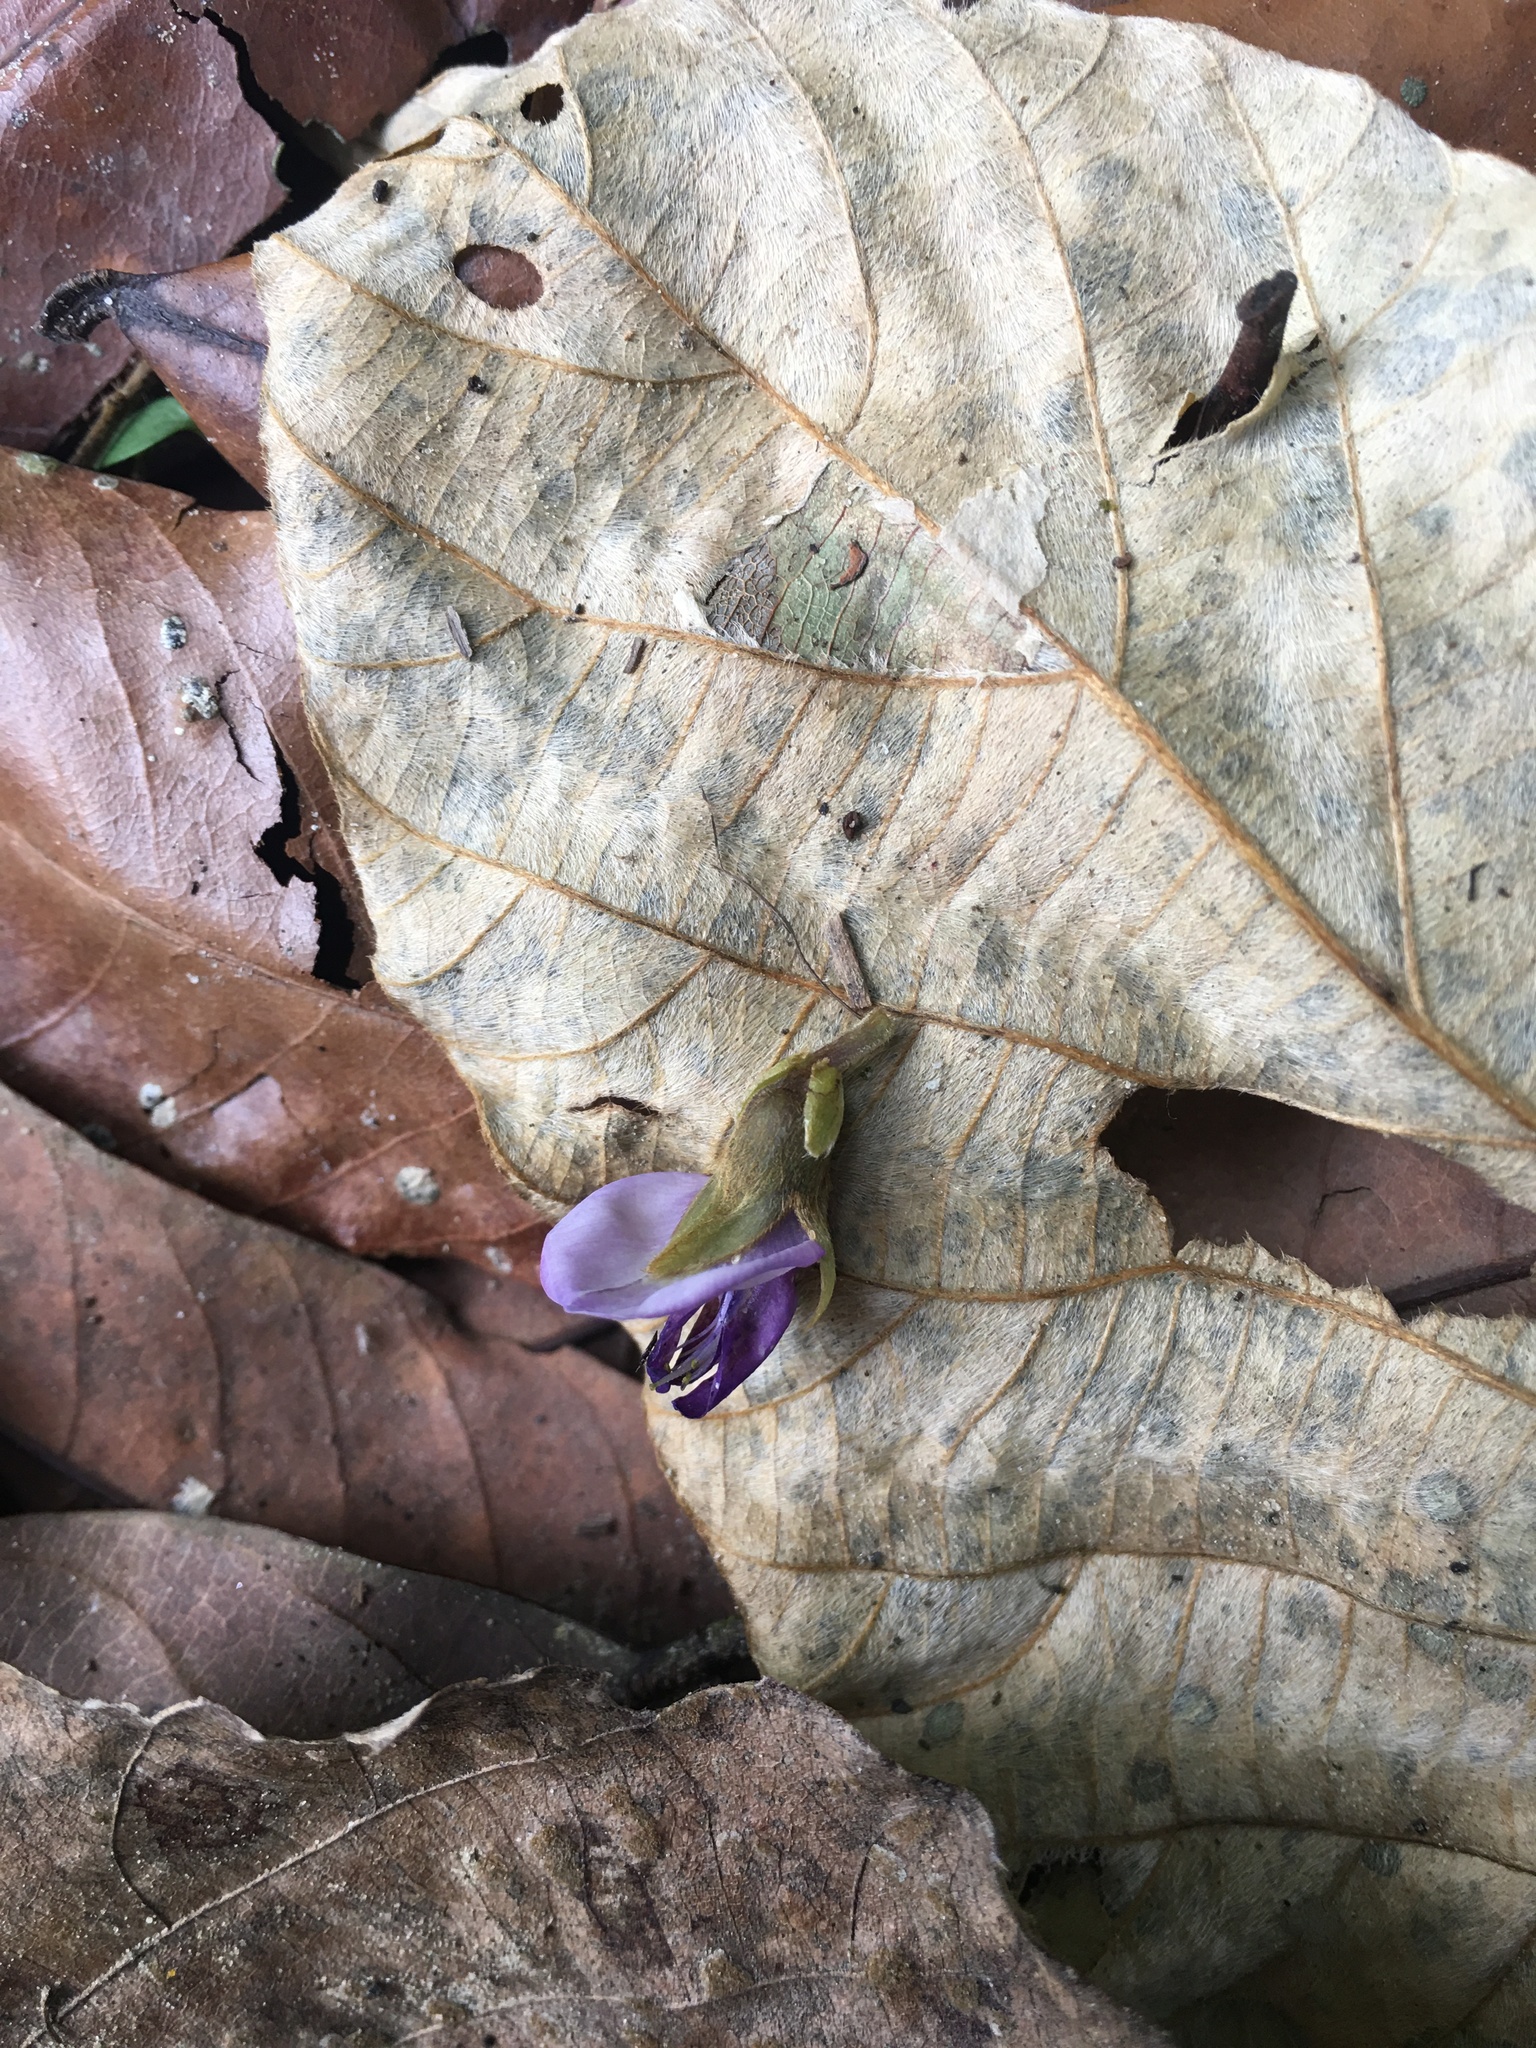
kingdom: Plantae
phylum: Tracheophyta
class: Magnoliopsida
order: Fabales
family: Fabaceae
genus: Pueraria
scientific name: Pueraria montana
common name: Kudzu
